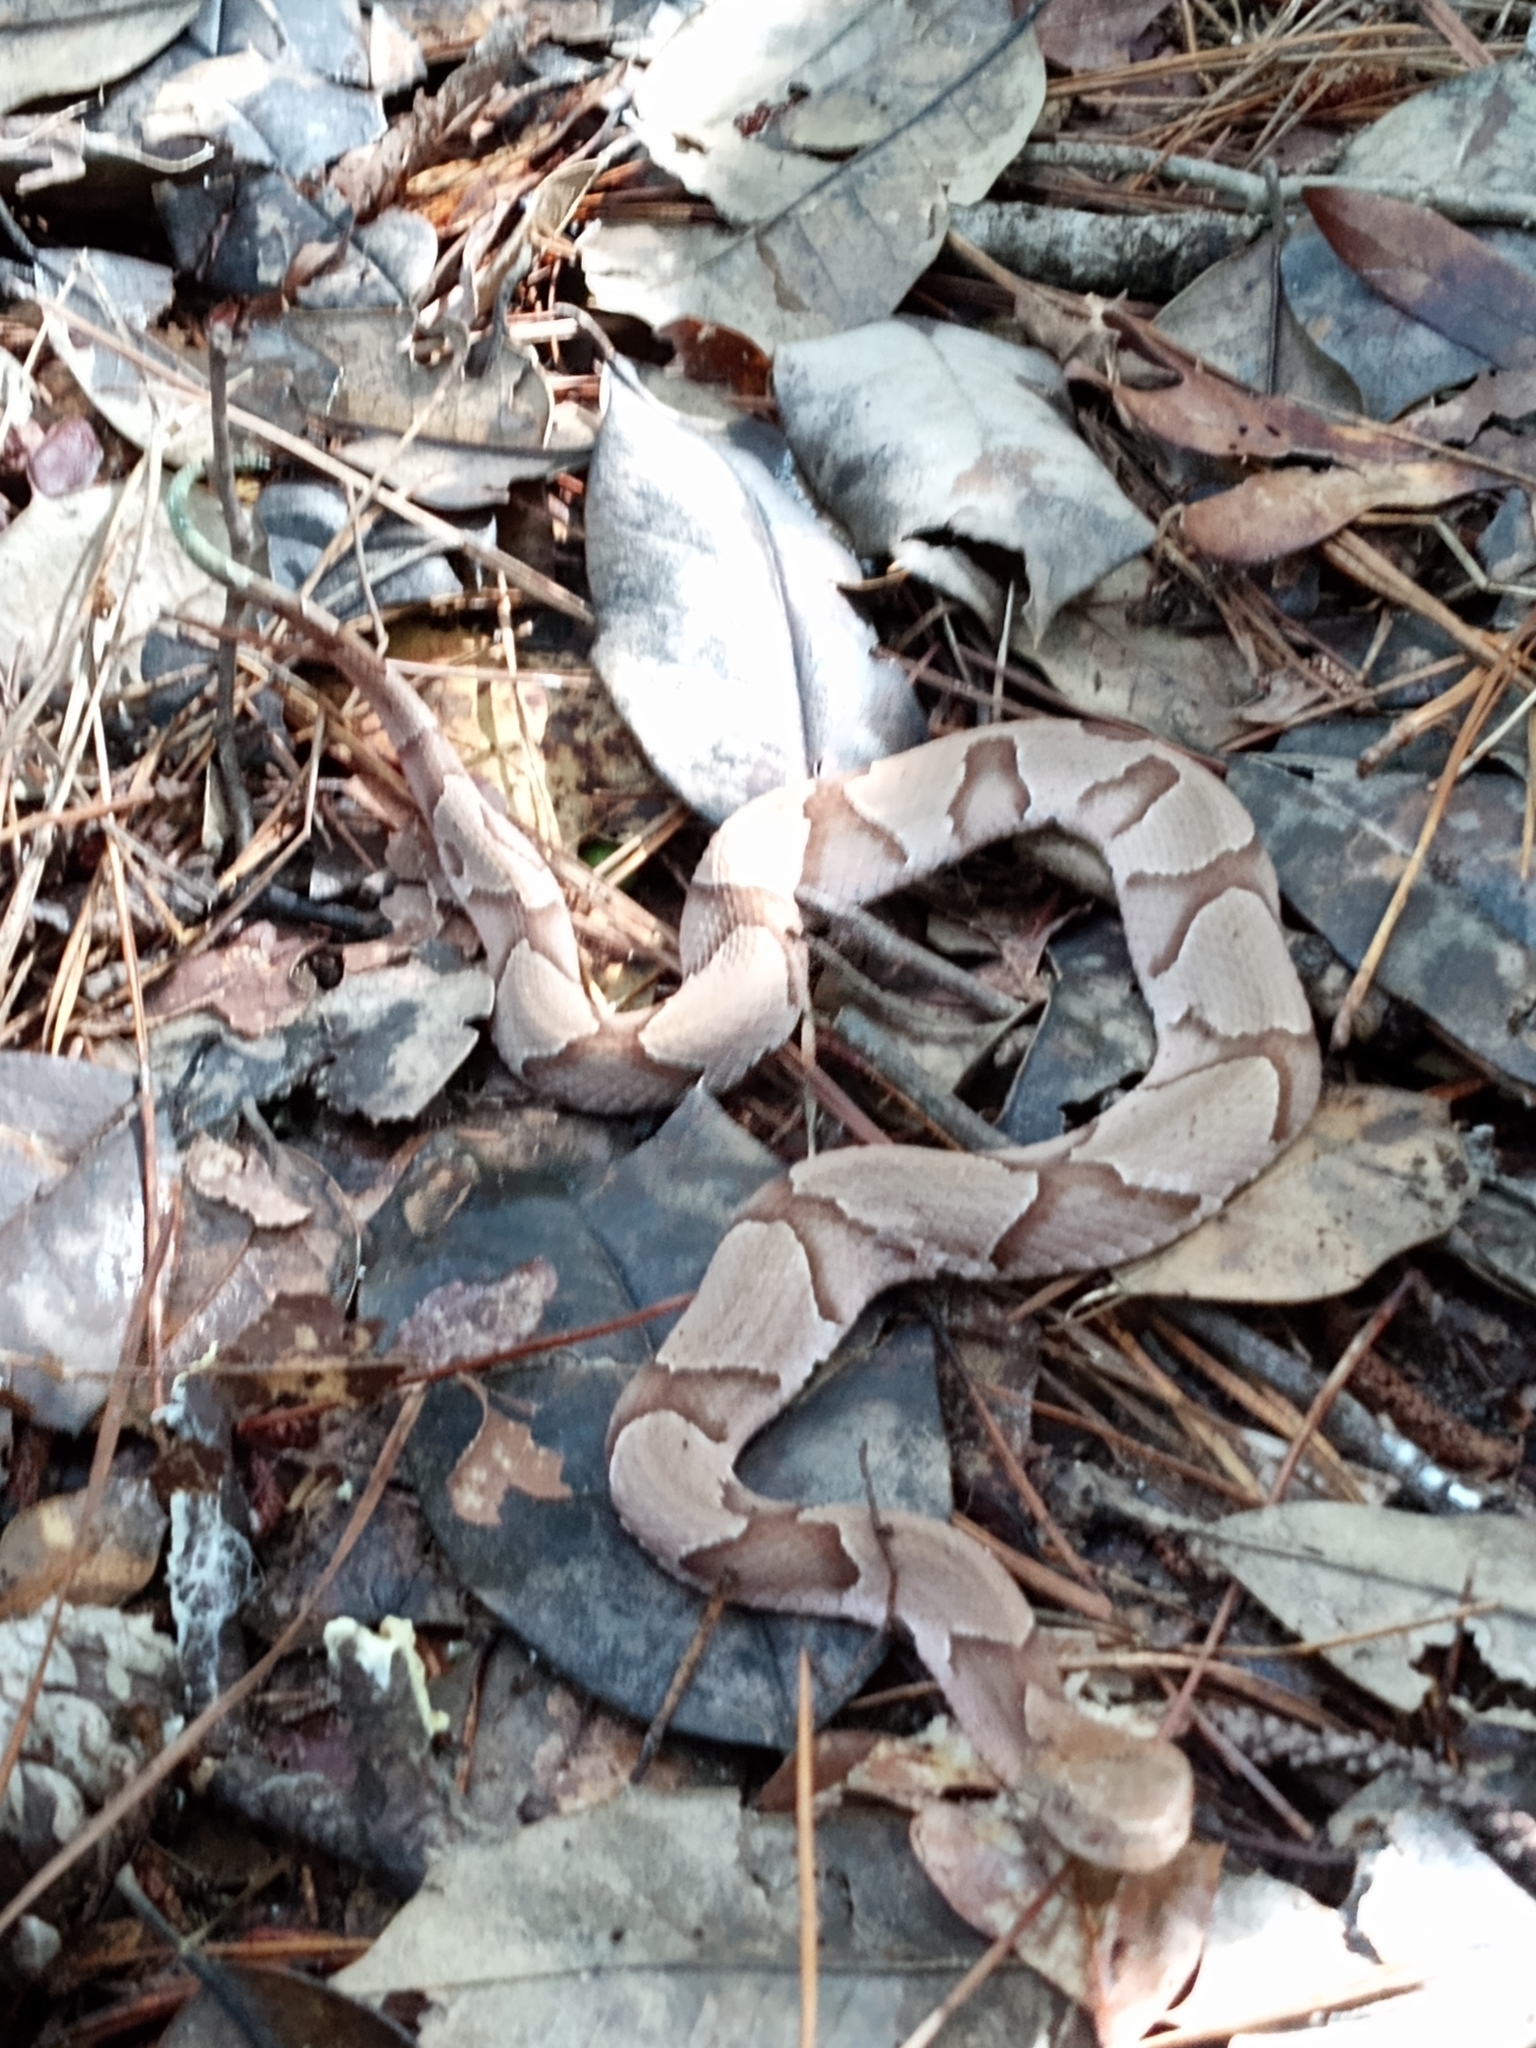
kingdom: Animalia
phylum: Chordata
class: Squamata
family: Viperidae
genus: Agkistrodon
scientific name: Agkistrodon contortrix
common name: Northern copperhead
